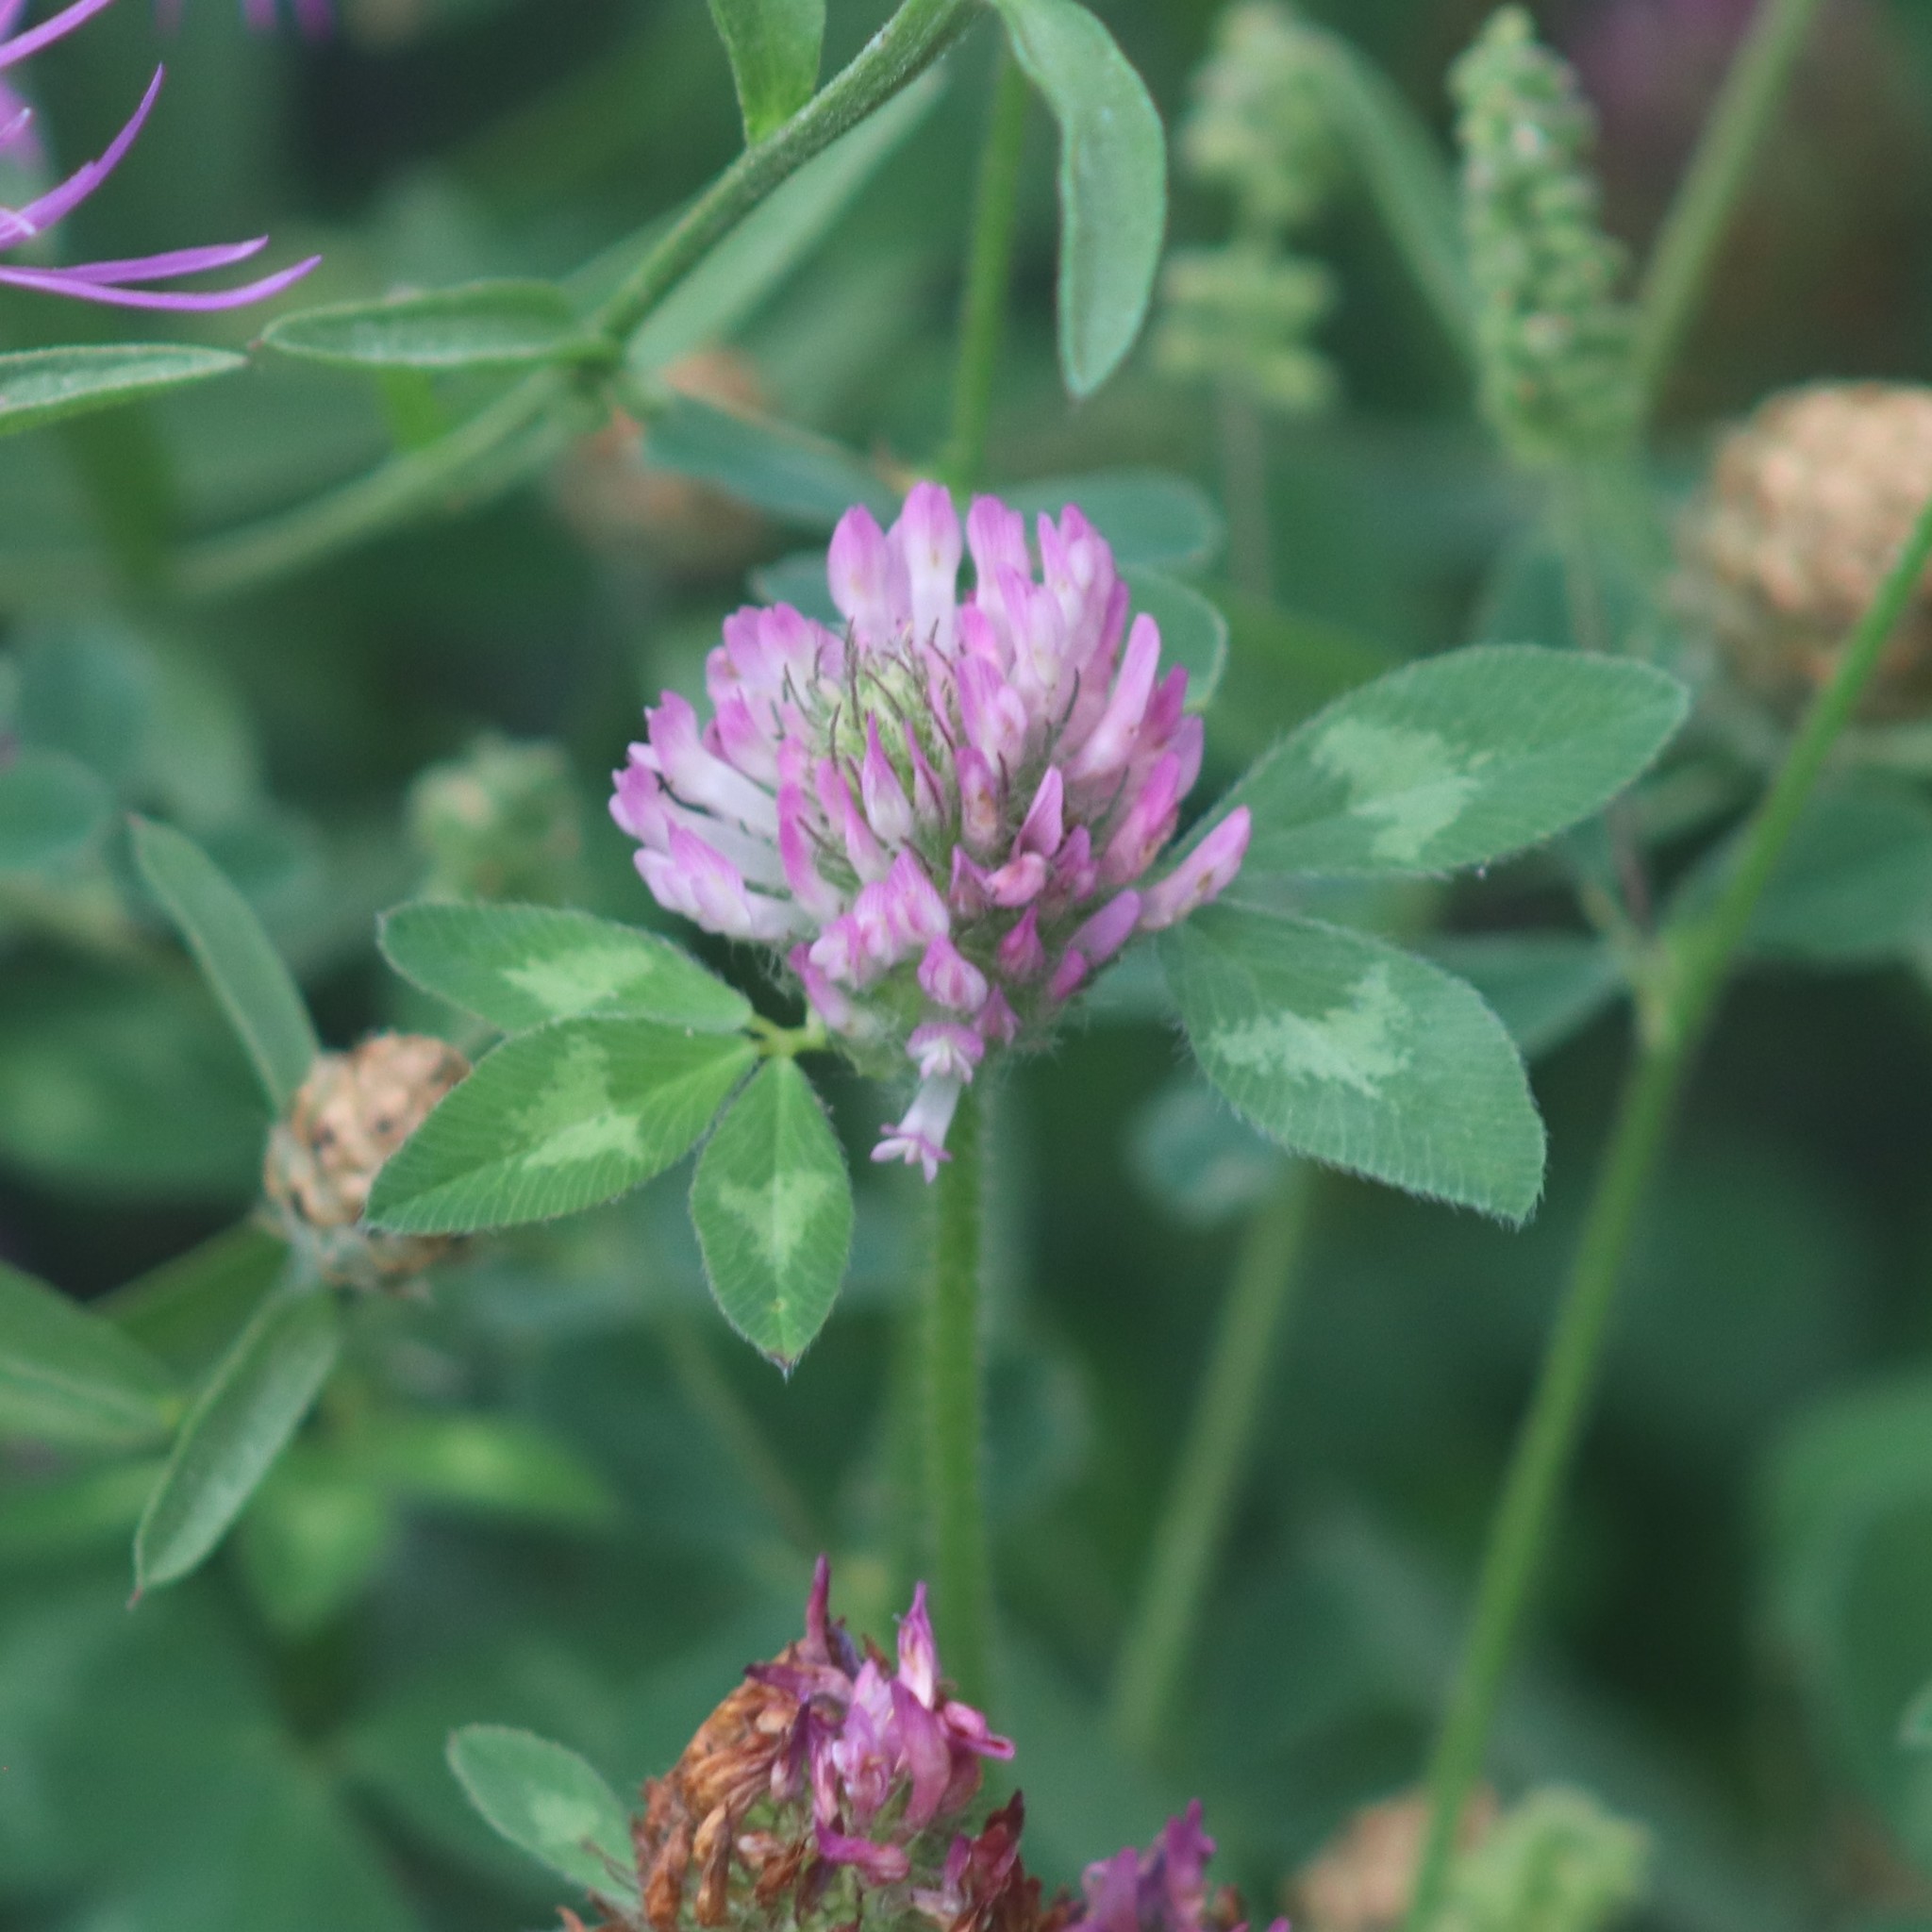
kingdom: Plantae
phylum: Tracheophyta
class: Magnoliopsida
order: Fabales
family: Fabaceae
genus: Trifolium
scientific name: Trifolium pratense
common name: Red clover
